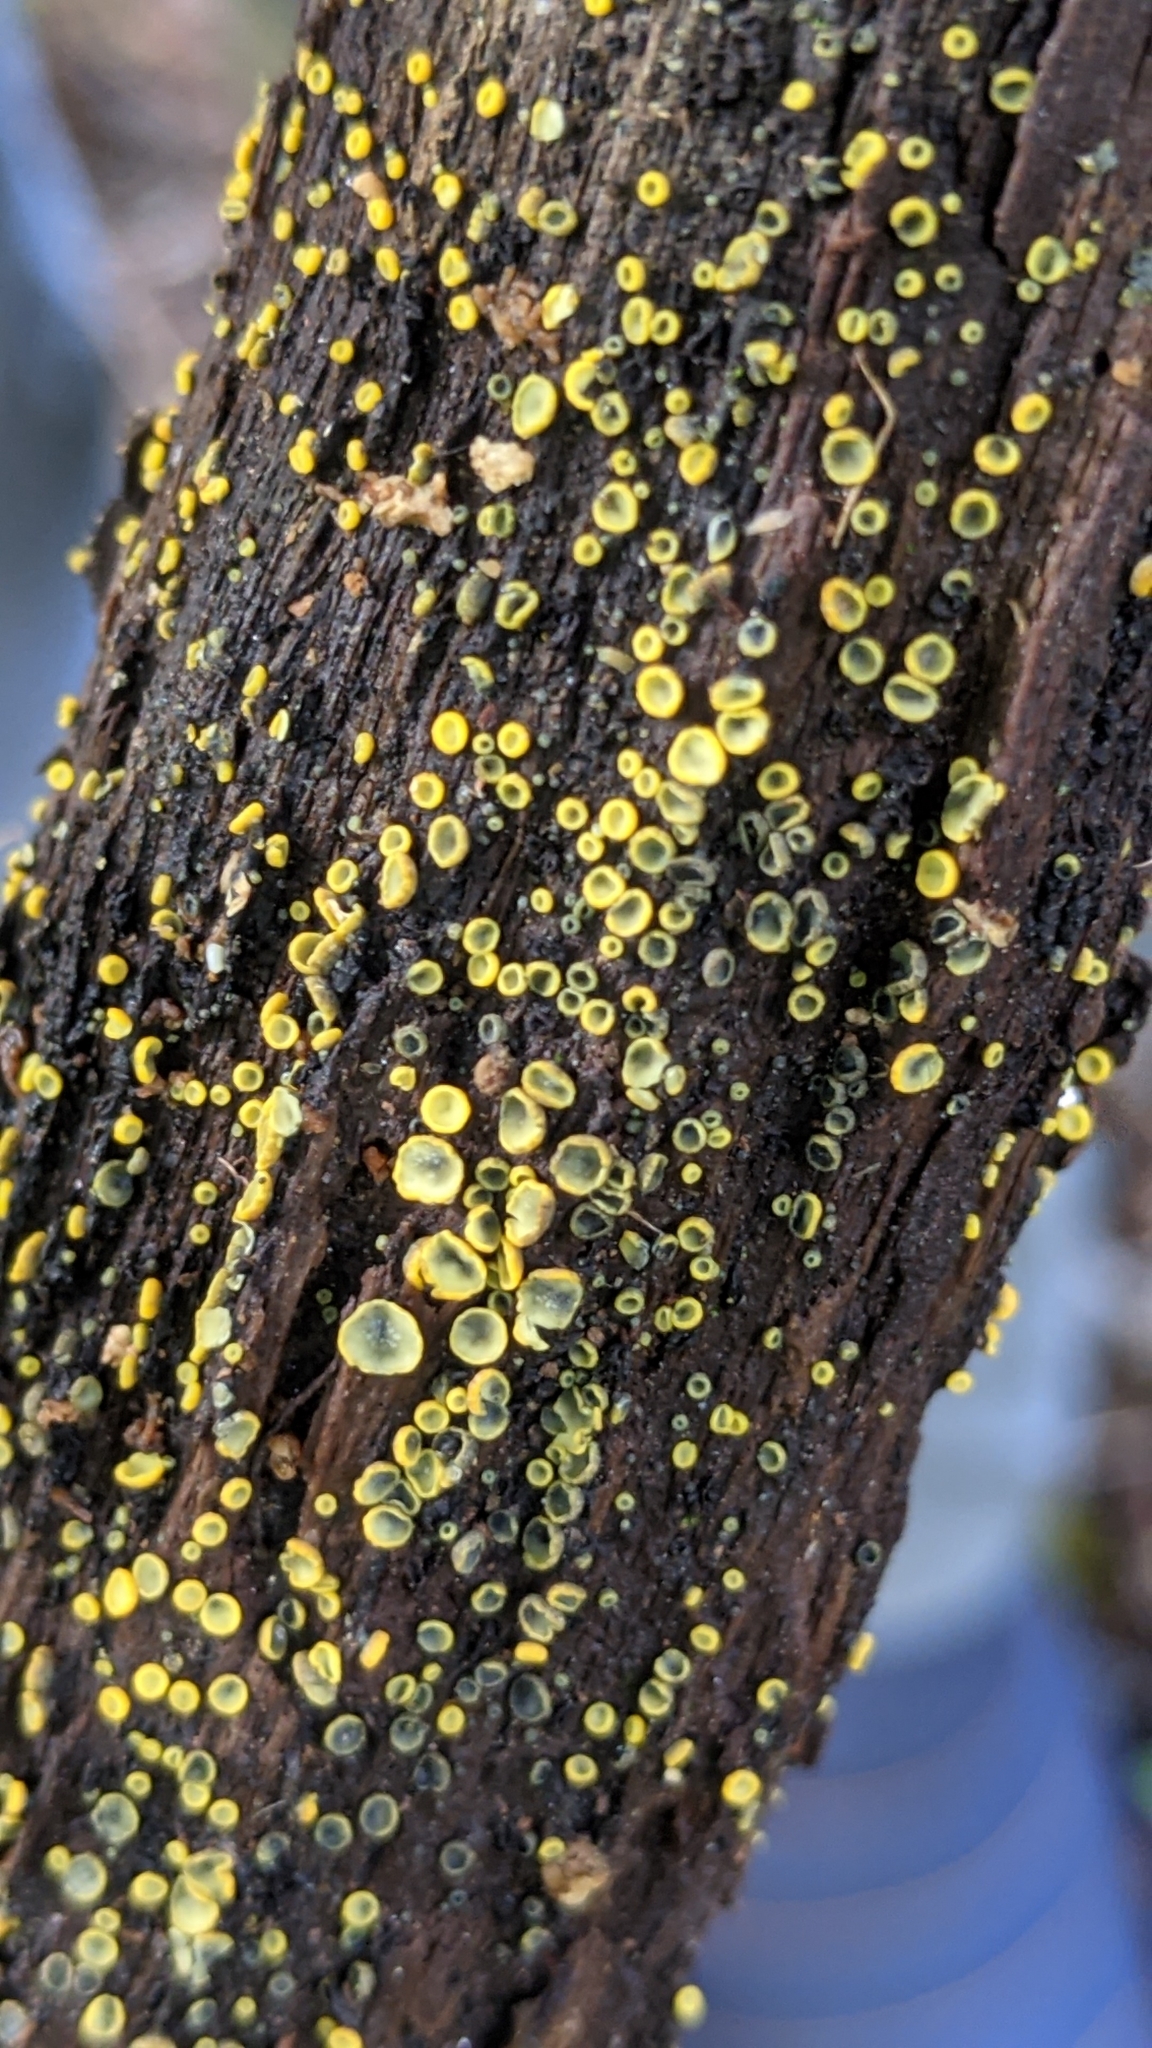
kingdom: Fungi
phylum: Ascomycota
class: Leotiomycetes
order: Helotiales
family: Chlorospleniaceae
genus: Chlorosplenium
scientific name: Chlorosplenium chlora
